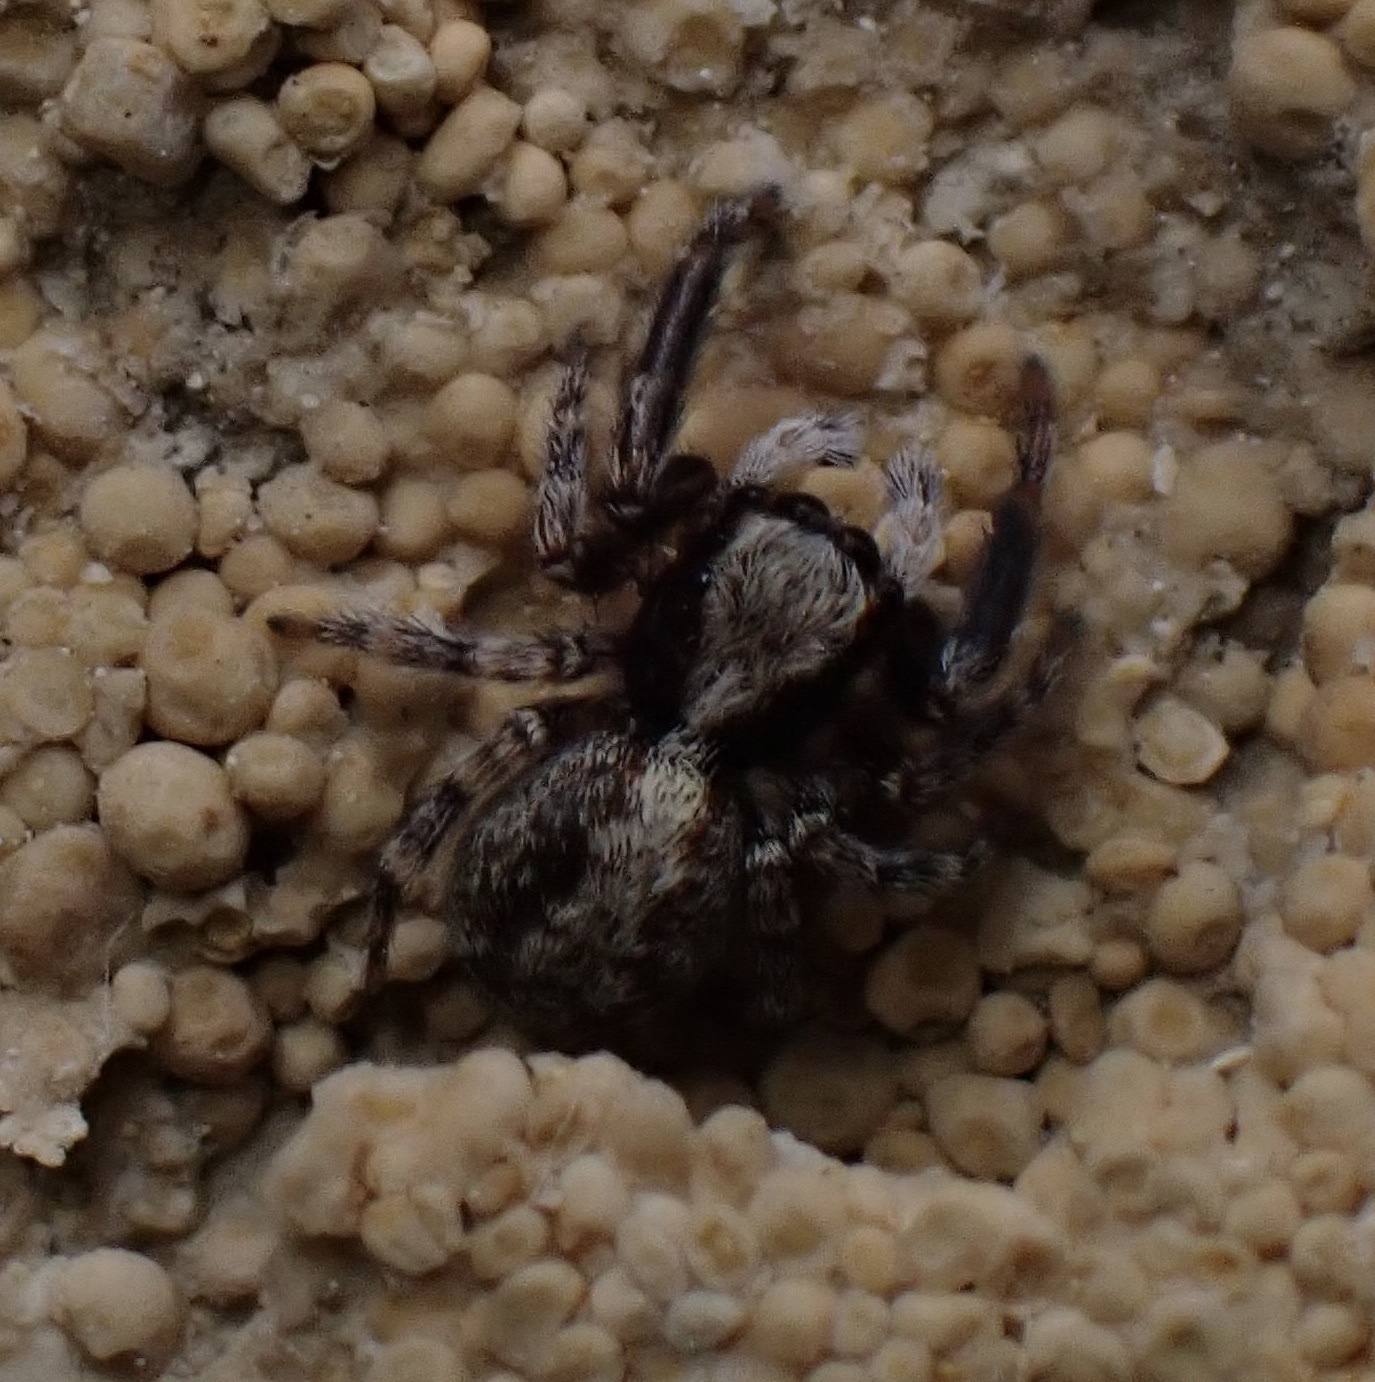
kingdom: Animalia
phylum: Arthropoda
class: Arachnida
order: Araneae
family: Salticidae
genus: Pseudeuophrys
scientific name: Pseudeuophrys lanigera
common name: Jumping spider
